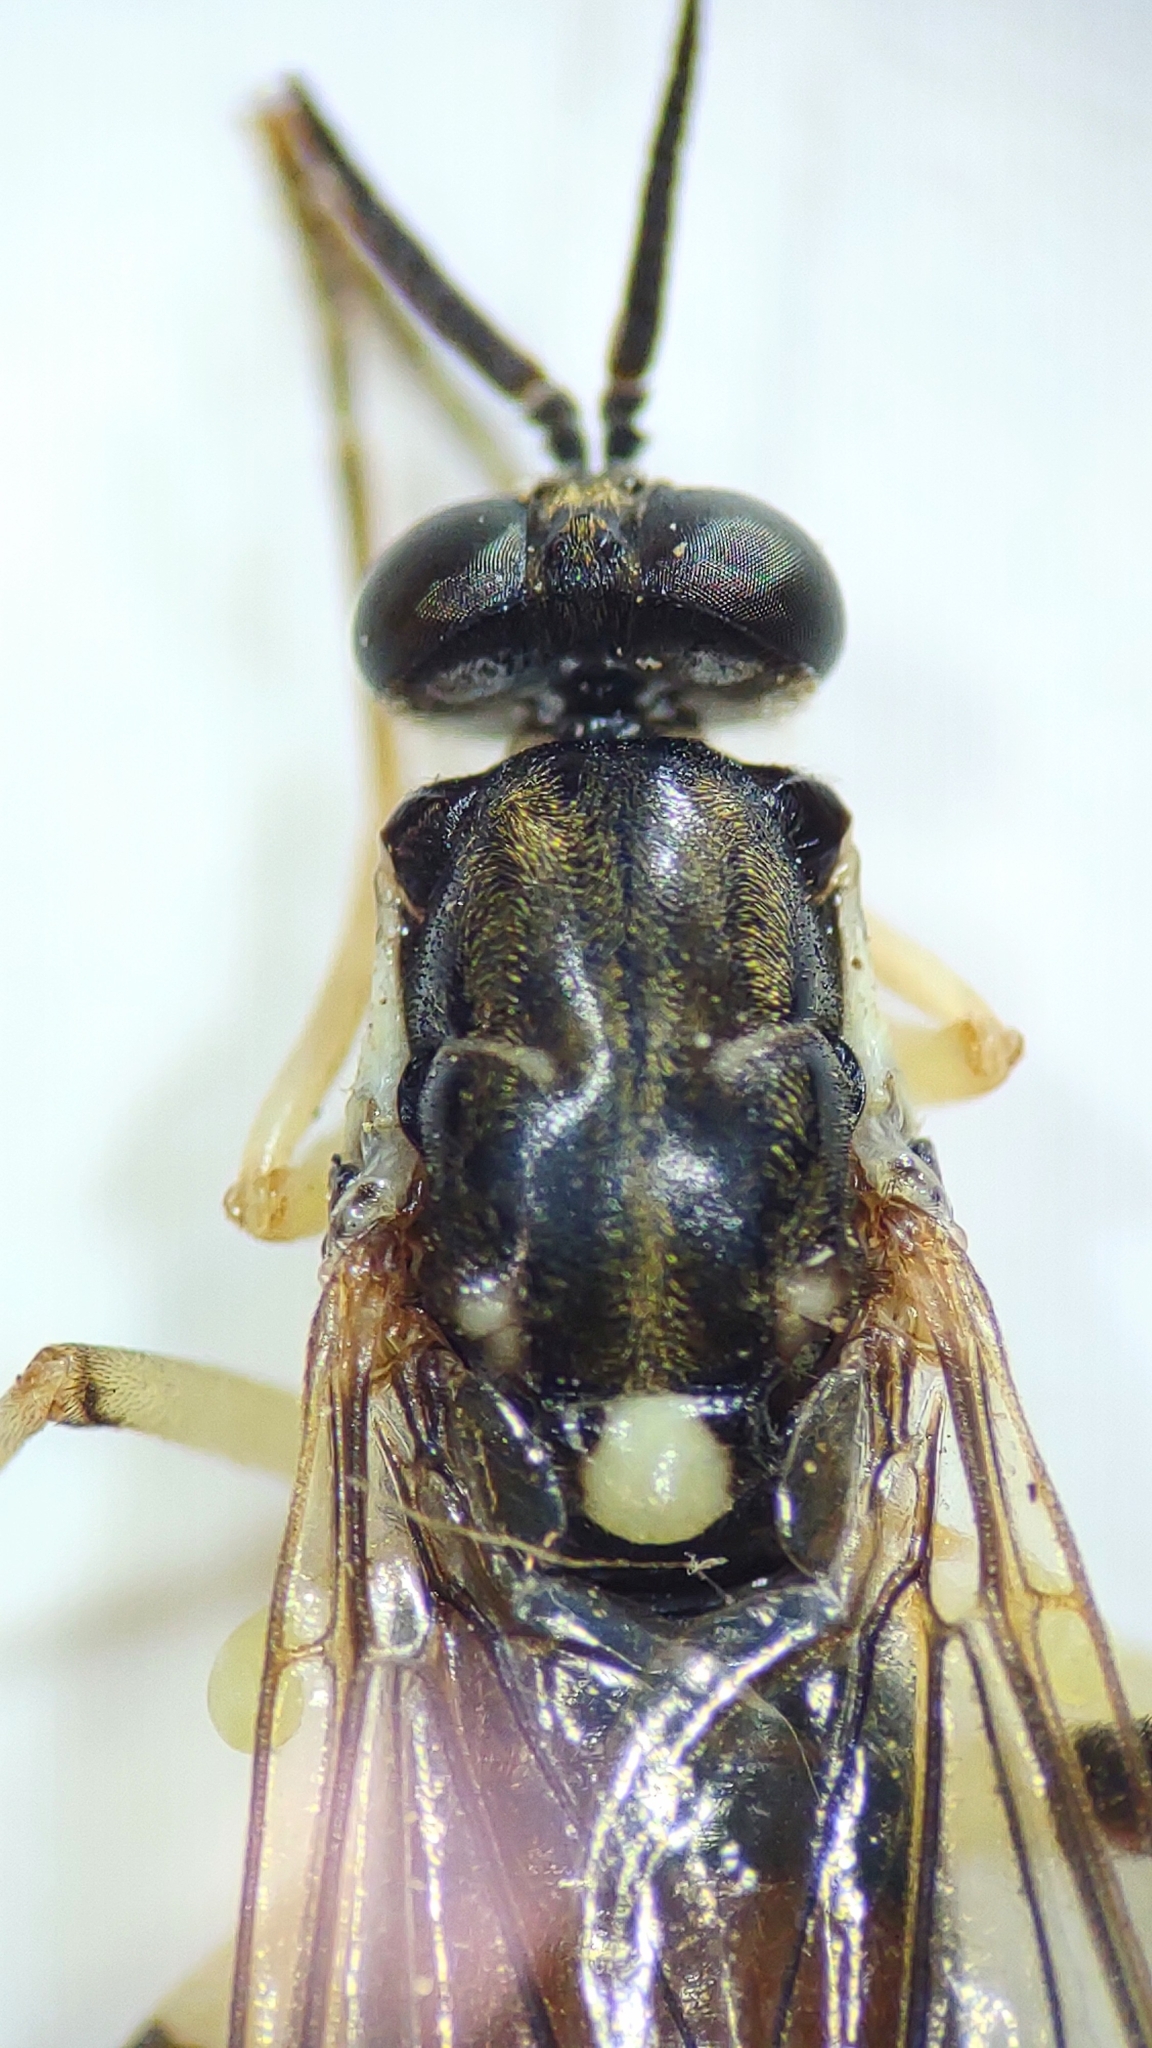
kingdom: Animalia
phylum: Arthropoda
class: Insecta
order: Diptera
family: Xylomyidae
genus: Xylomya
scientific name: Xylomya simillima
